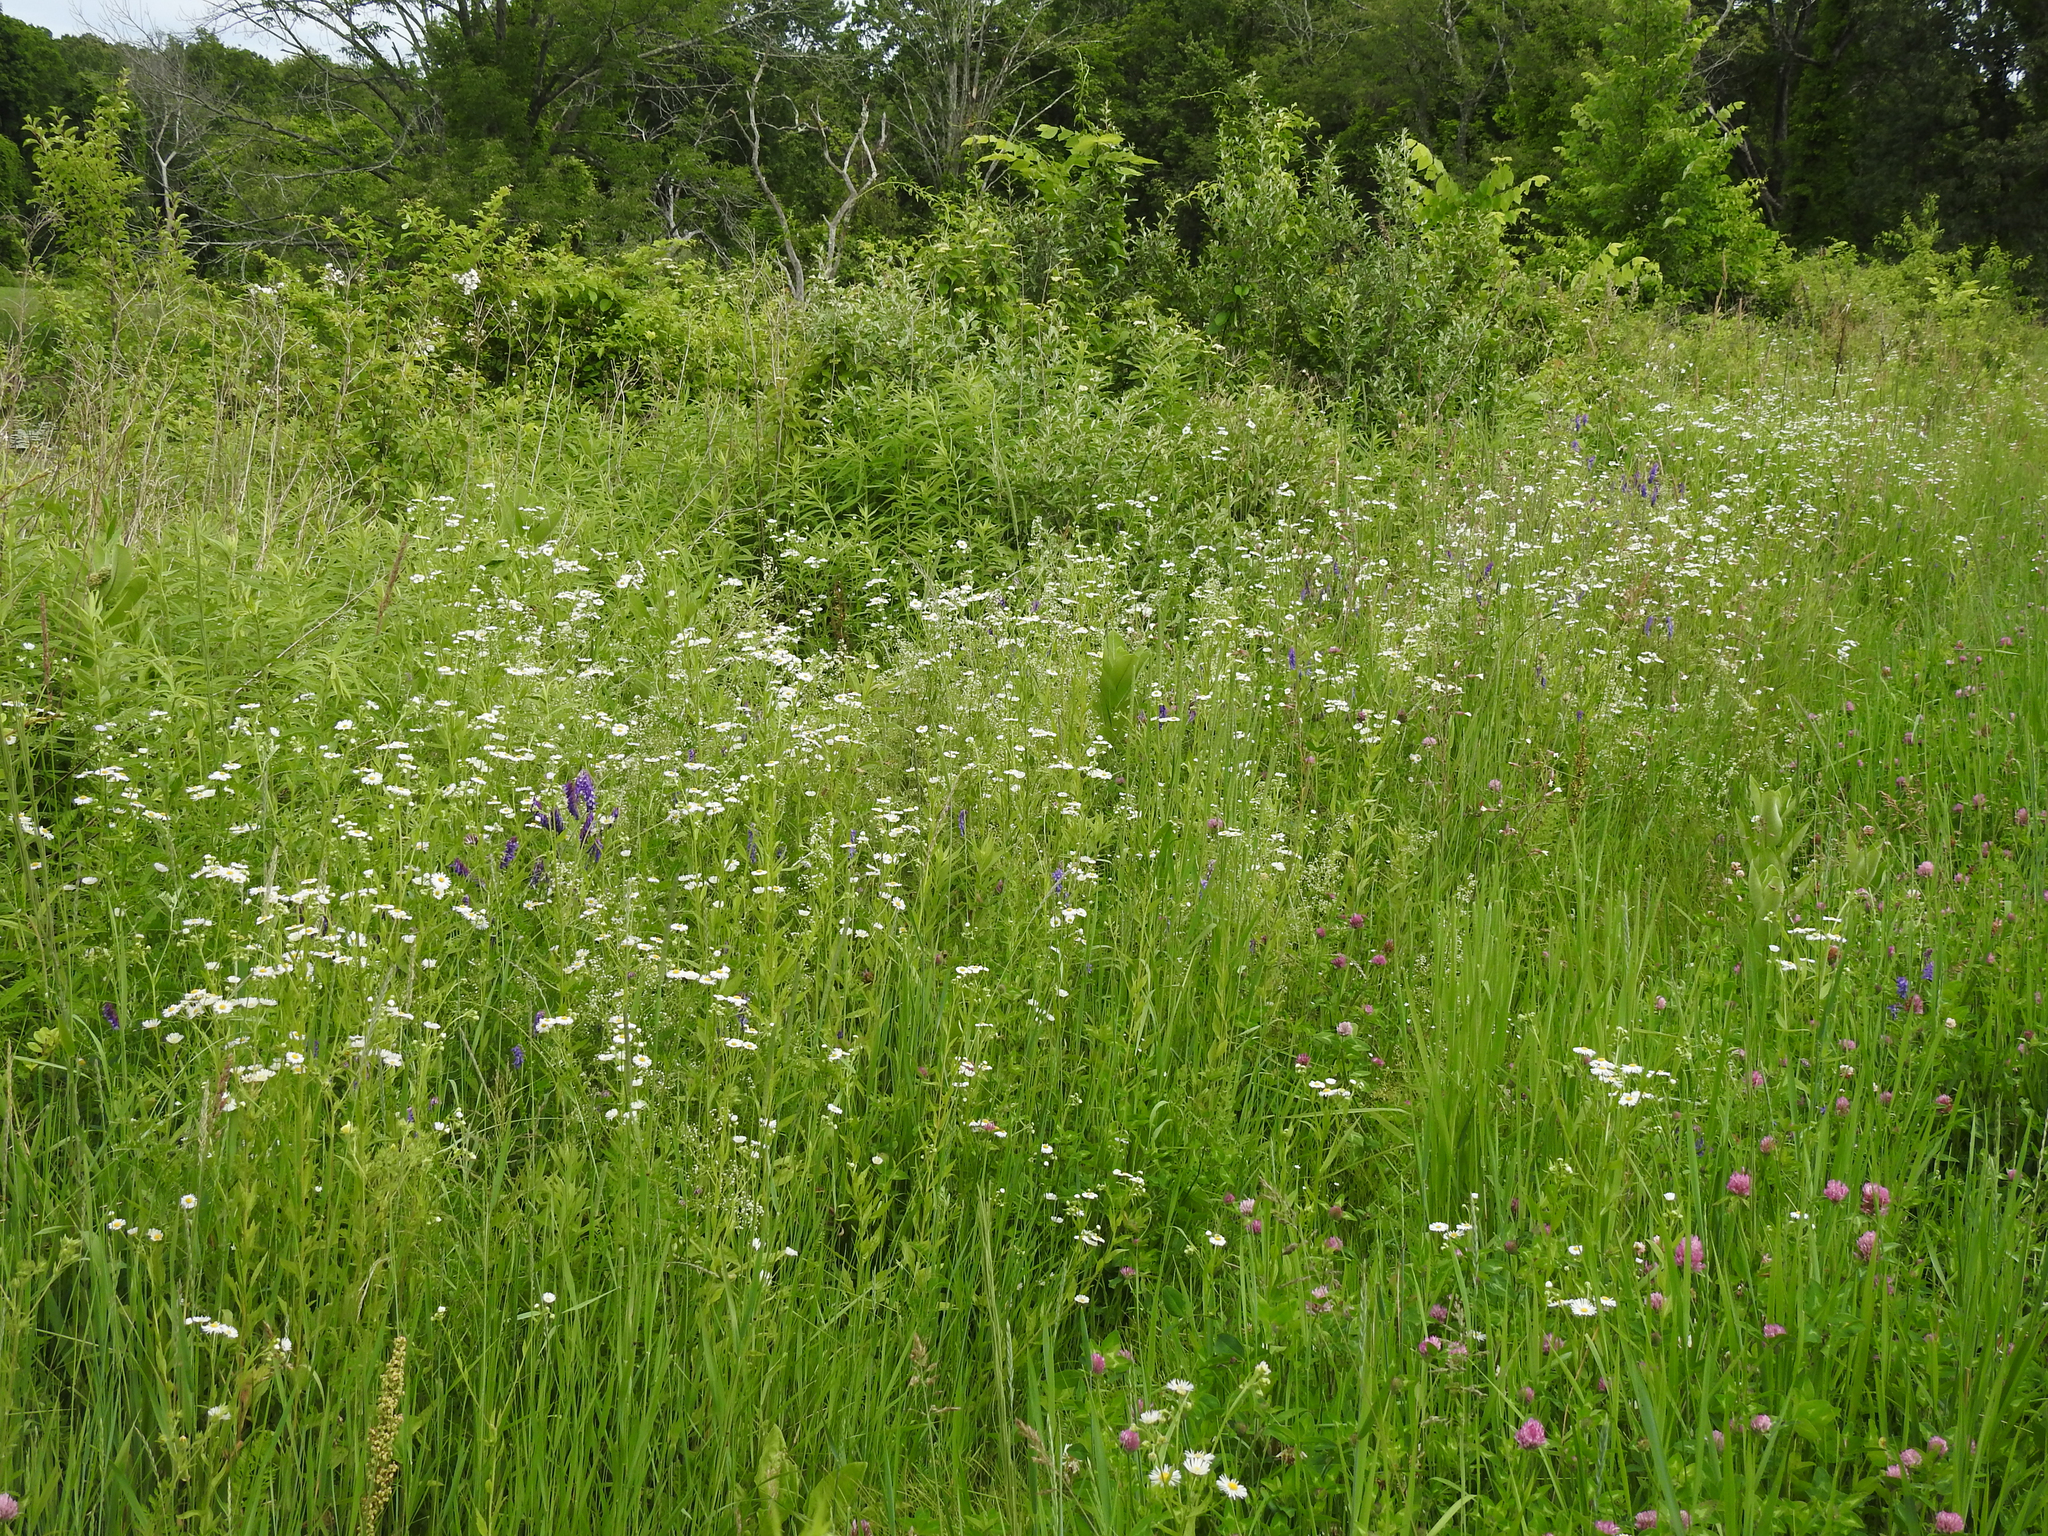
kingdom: Plantae
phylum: Tracheophyta
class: Magnoliopsida
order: Asterales
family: Asteraceae
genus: Erigeron
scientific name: Erigeron annuus
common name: Tall fleabane
